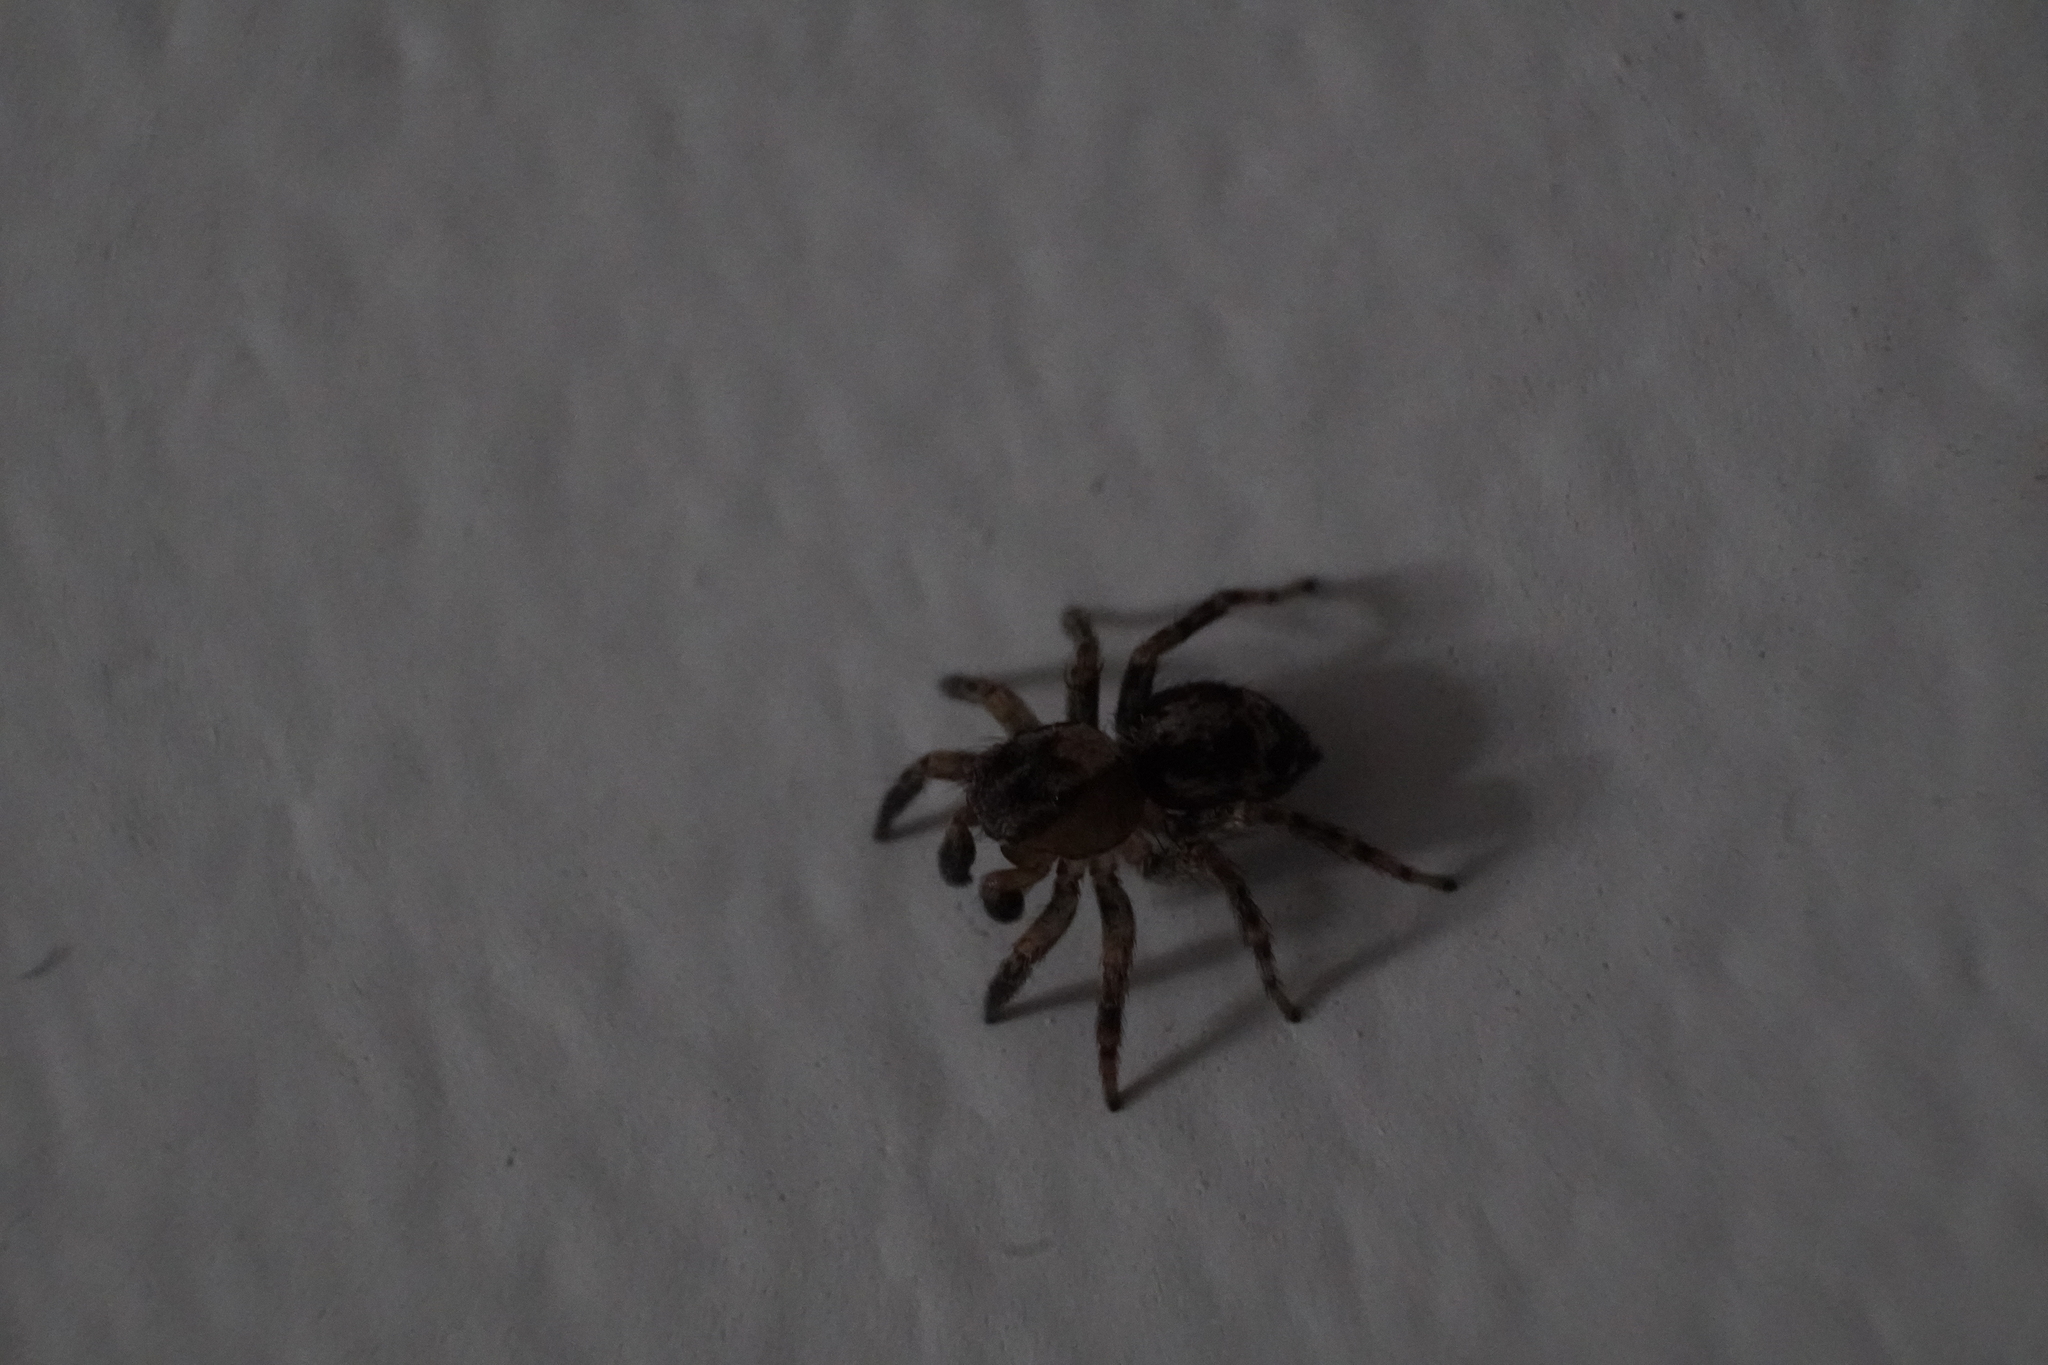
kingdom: Animalia
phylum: Arthropoda
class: Arachnida
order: Araneae
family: Salticidae
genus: Naphrys
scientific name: Naphrys pulex
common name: Flea jumping spider
